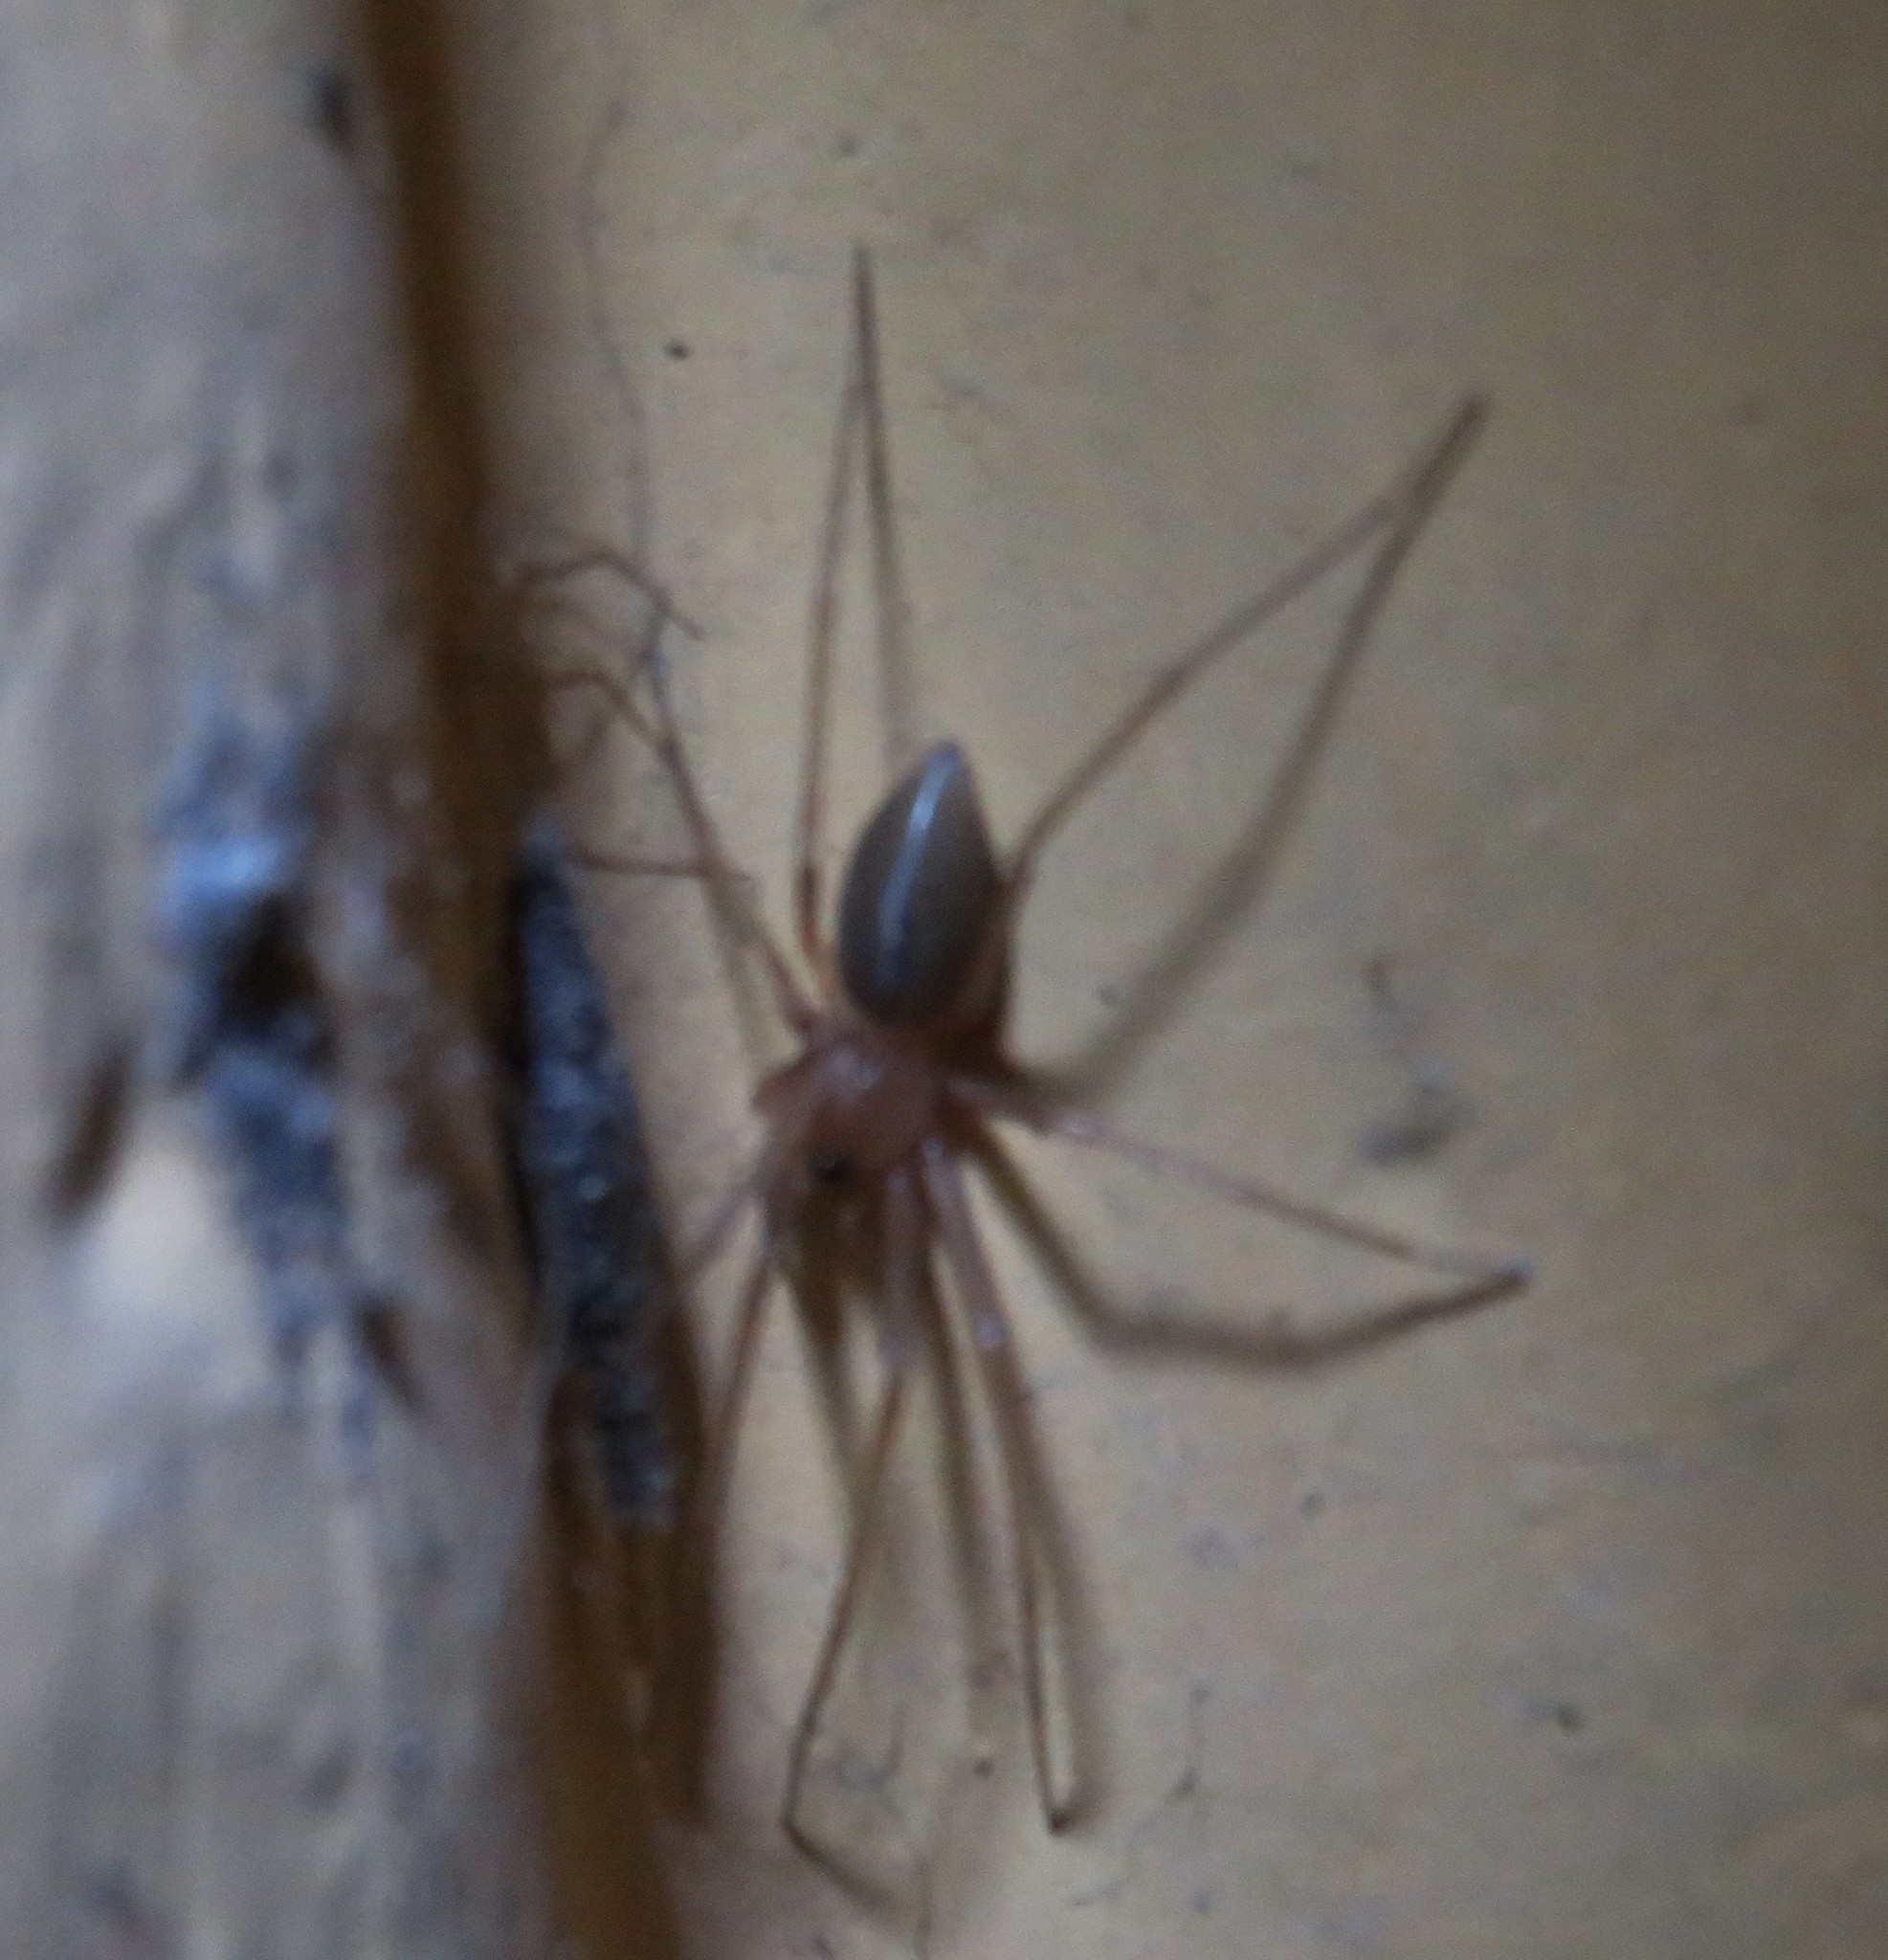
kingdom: Animalia
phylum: Arthropoda
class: Arachnida
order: Araneae
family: Cithaeronidae
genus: Cithaeron
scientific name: Cithaeron praedonius
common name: Synanthropic spider
